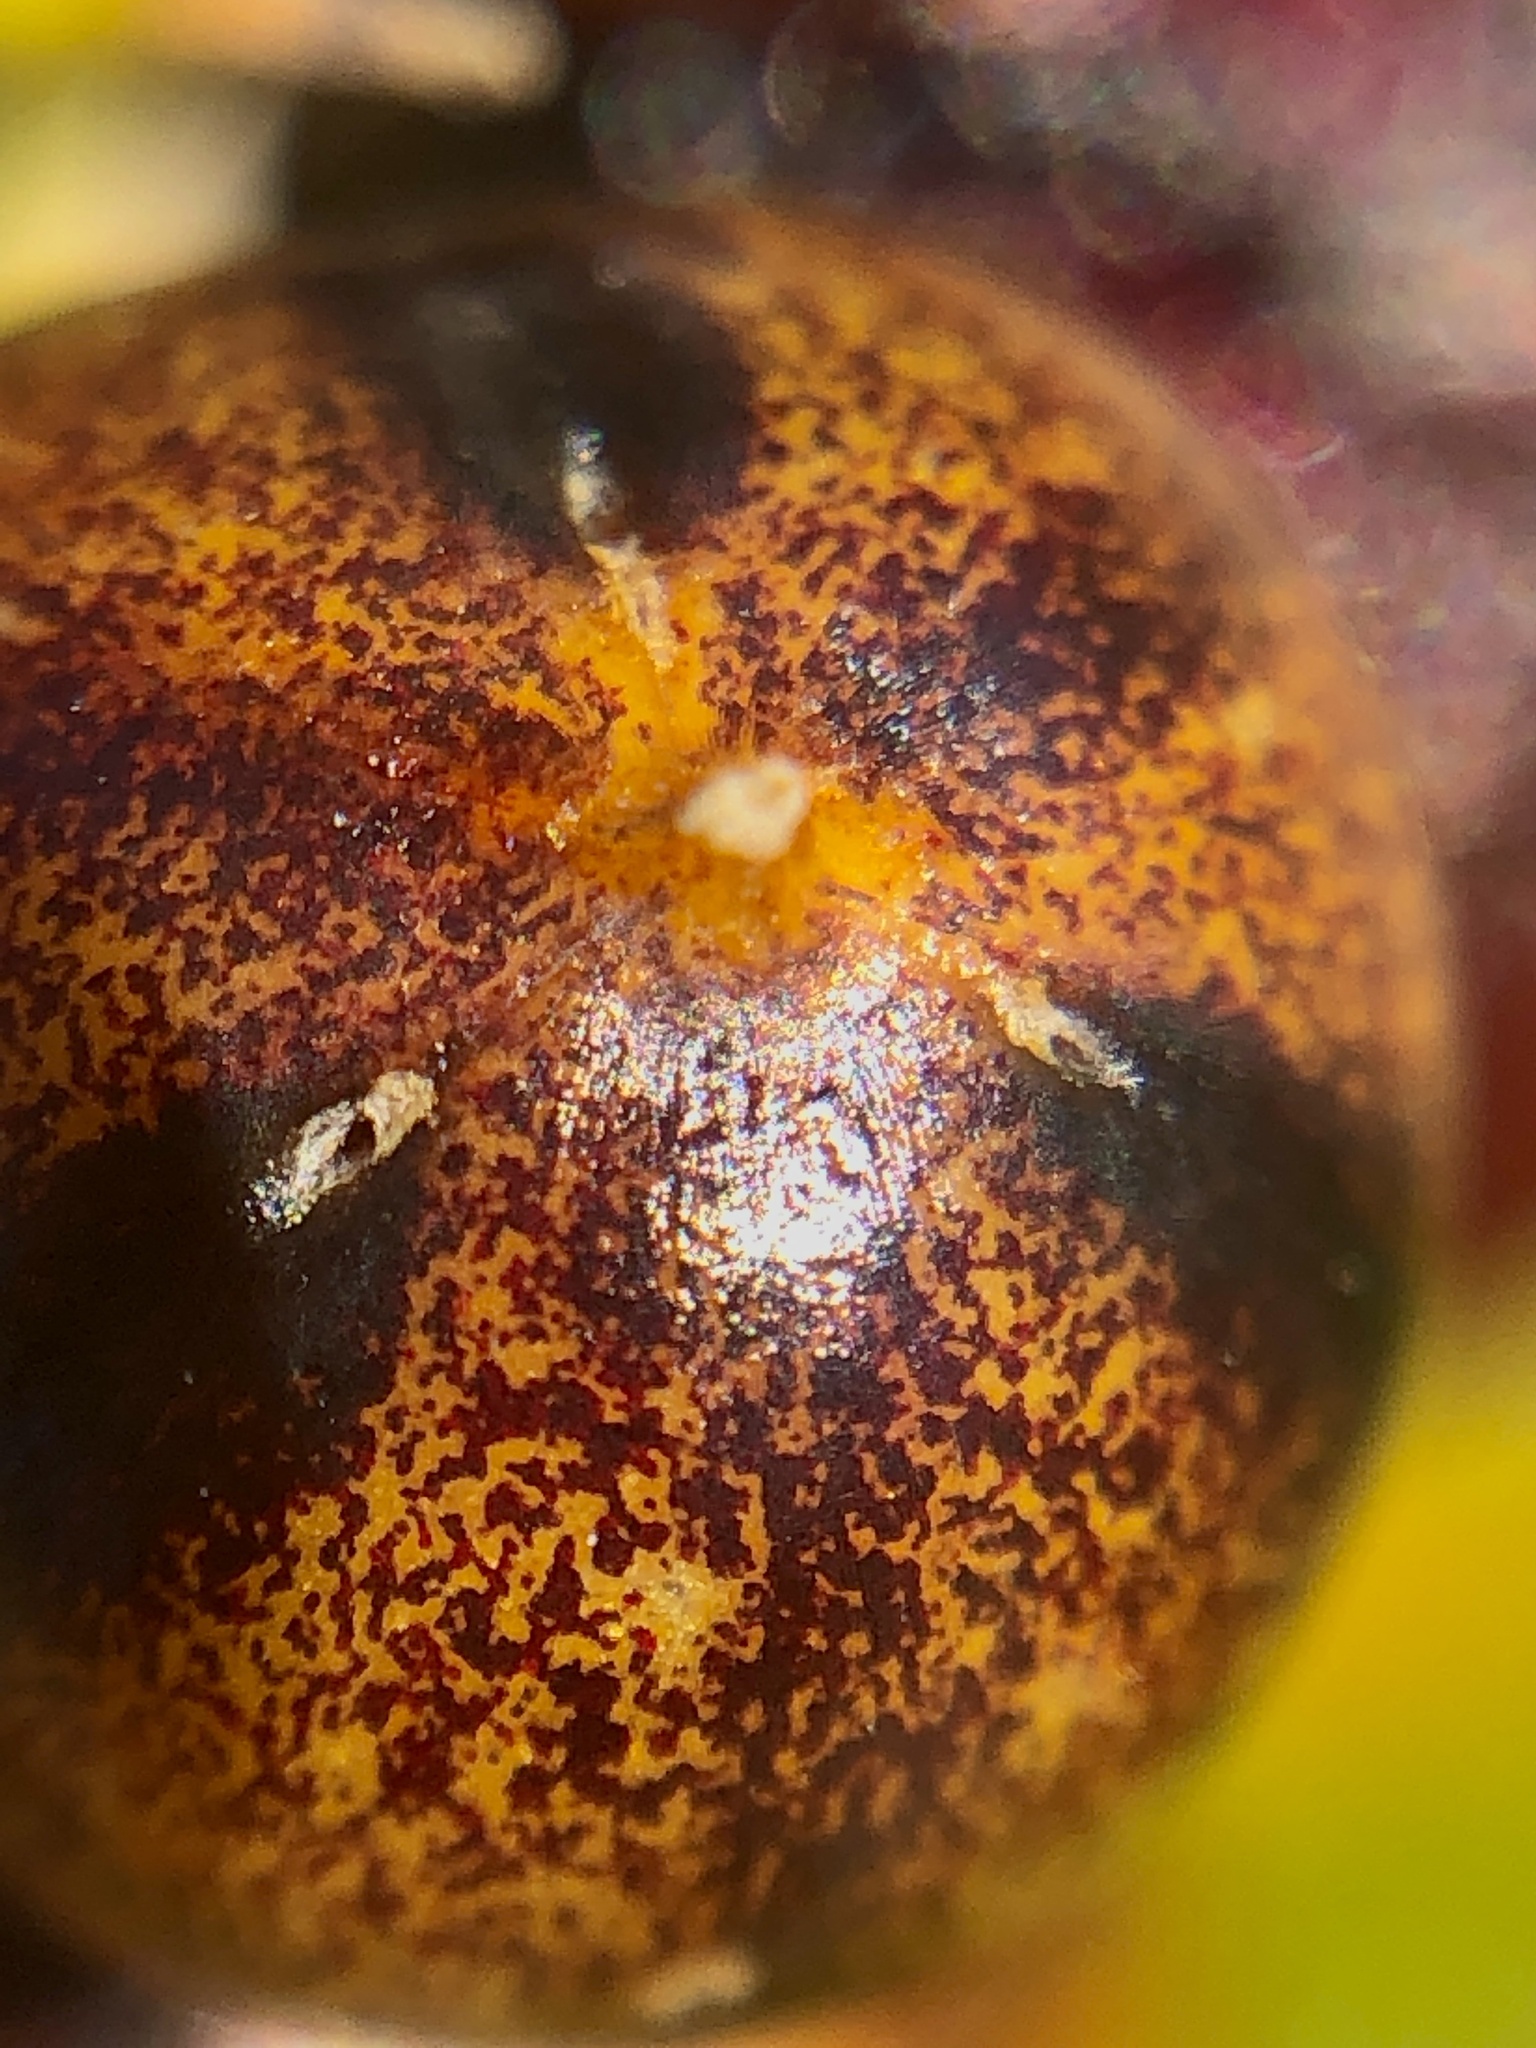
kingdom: Plantae
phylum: Tracheophyta
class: Liliopsida
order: Asparagales
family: Asparagaceae
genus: Maianthemum
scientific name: Maianthemum stellatum
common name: Little false solomon's seal
